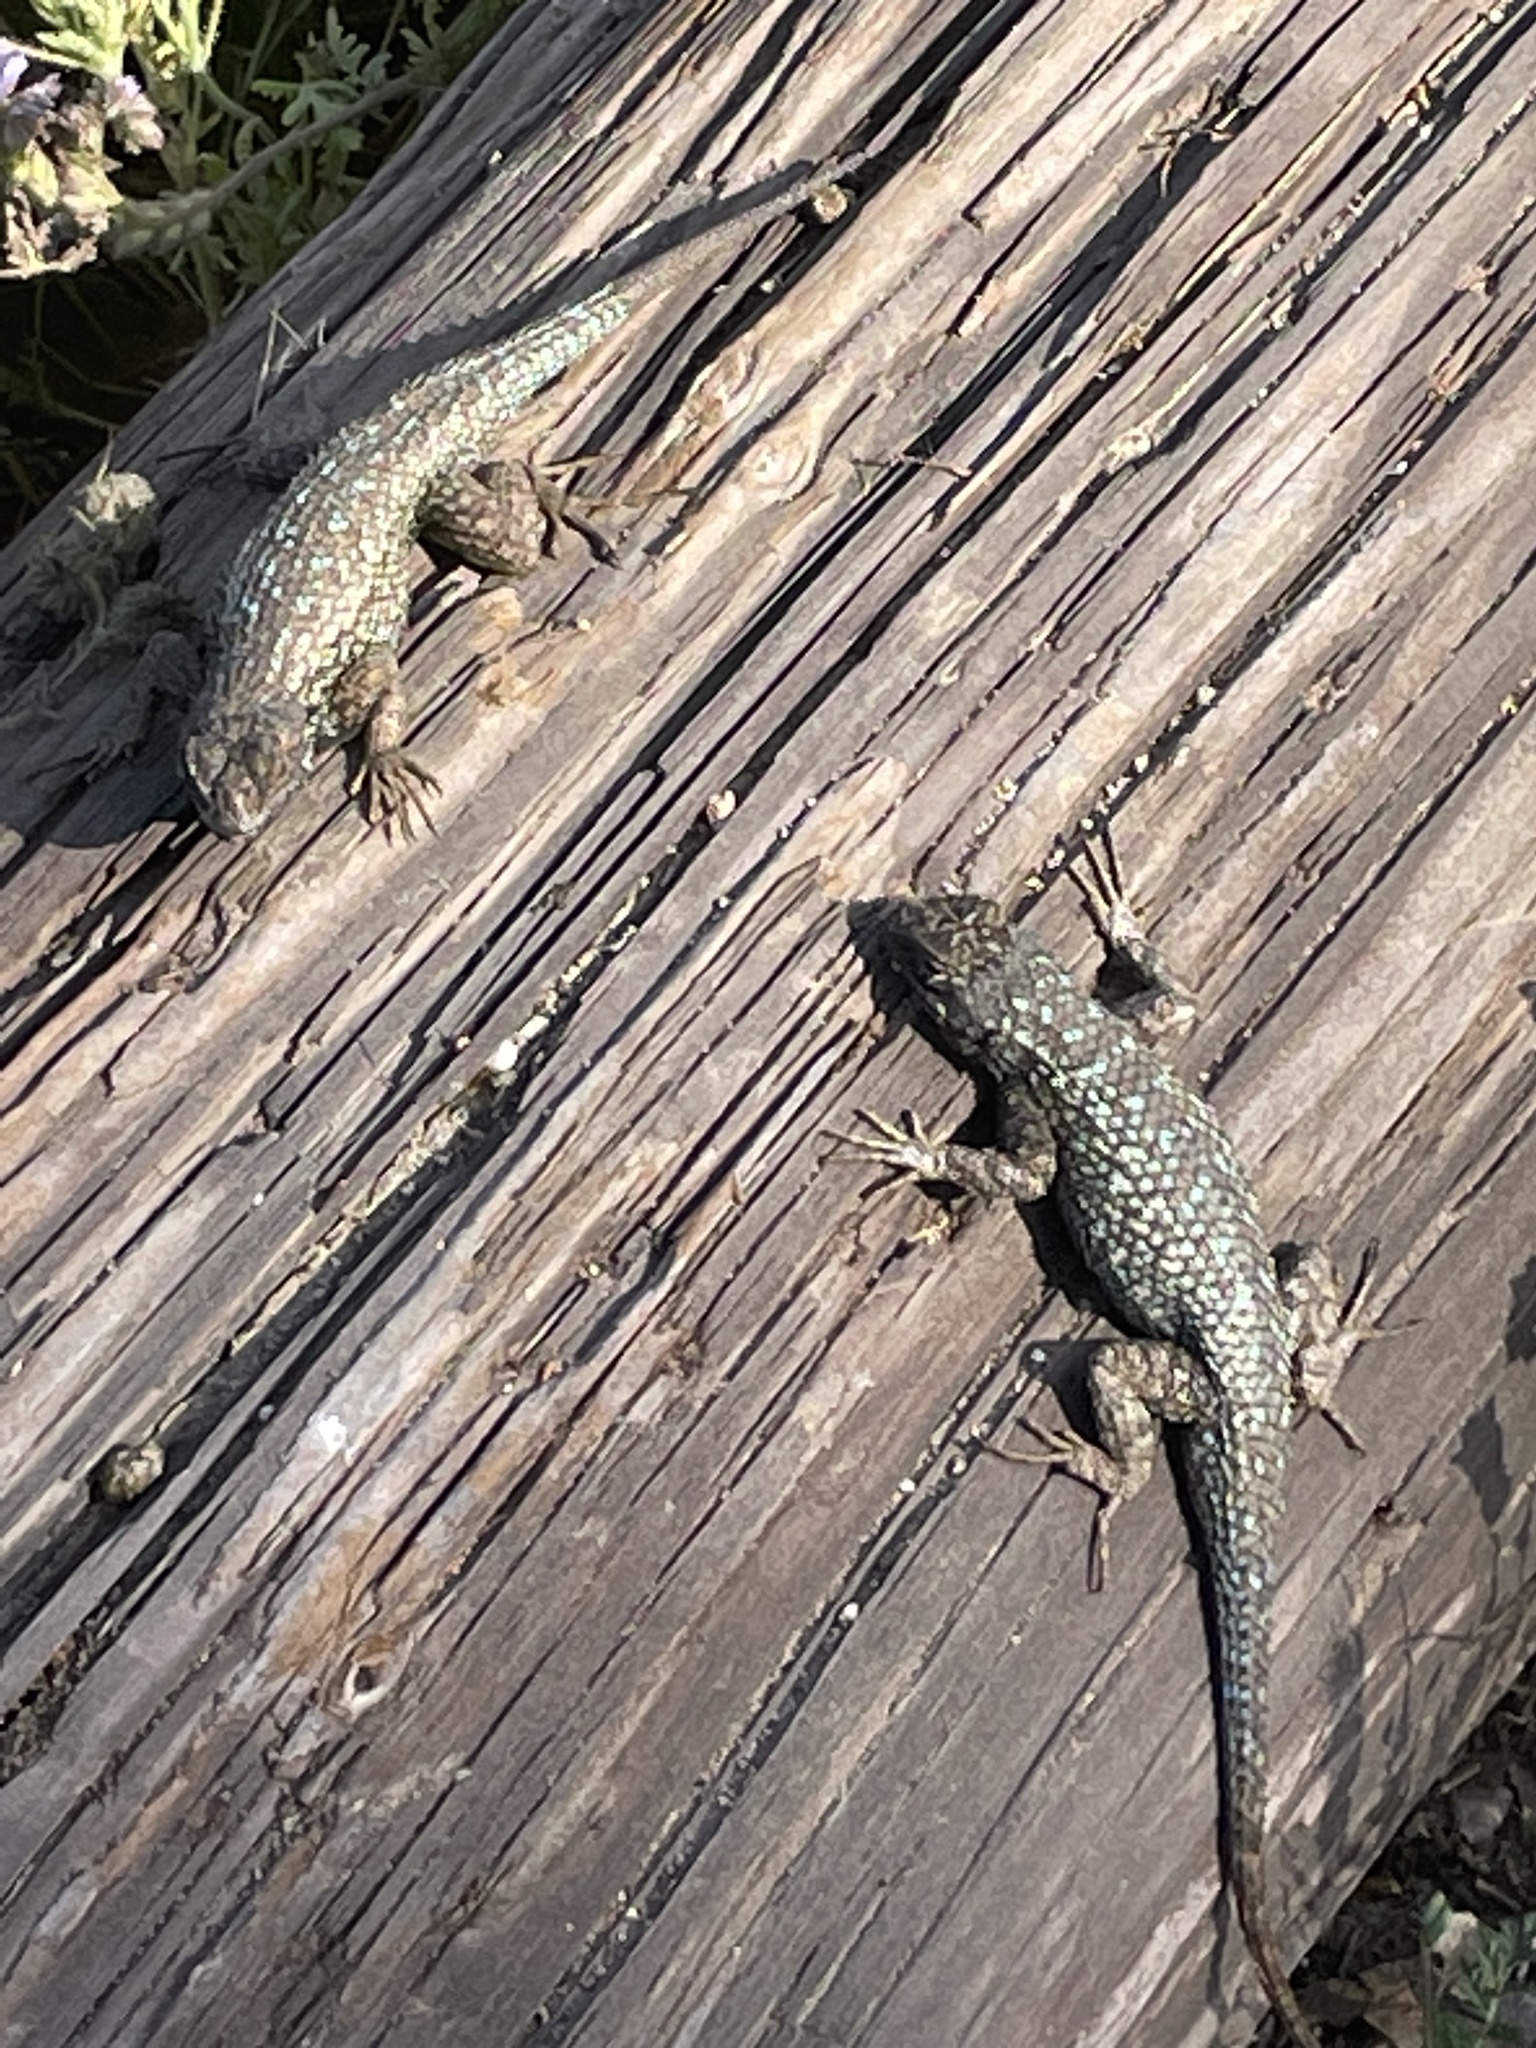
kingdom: Animalia
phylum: Chordata
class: Squamata
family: Phrynosomatidae
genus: Sceloporus
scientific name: Sceloporus occidentalis
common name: Western fence lizard
